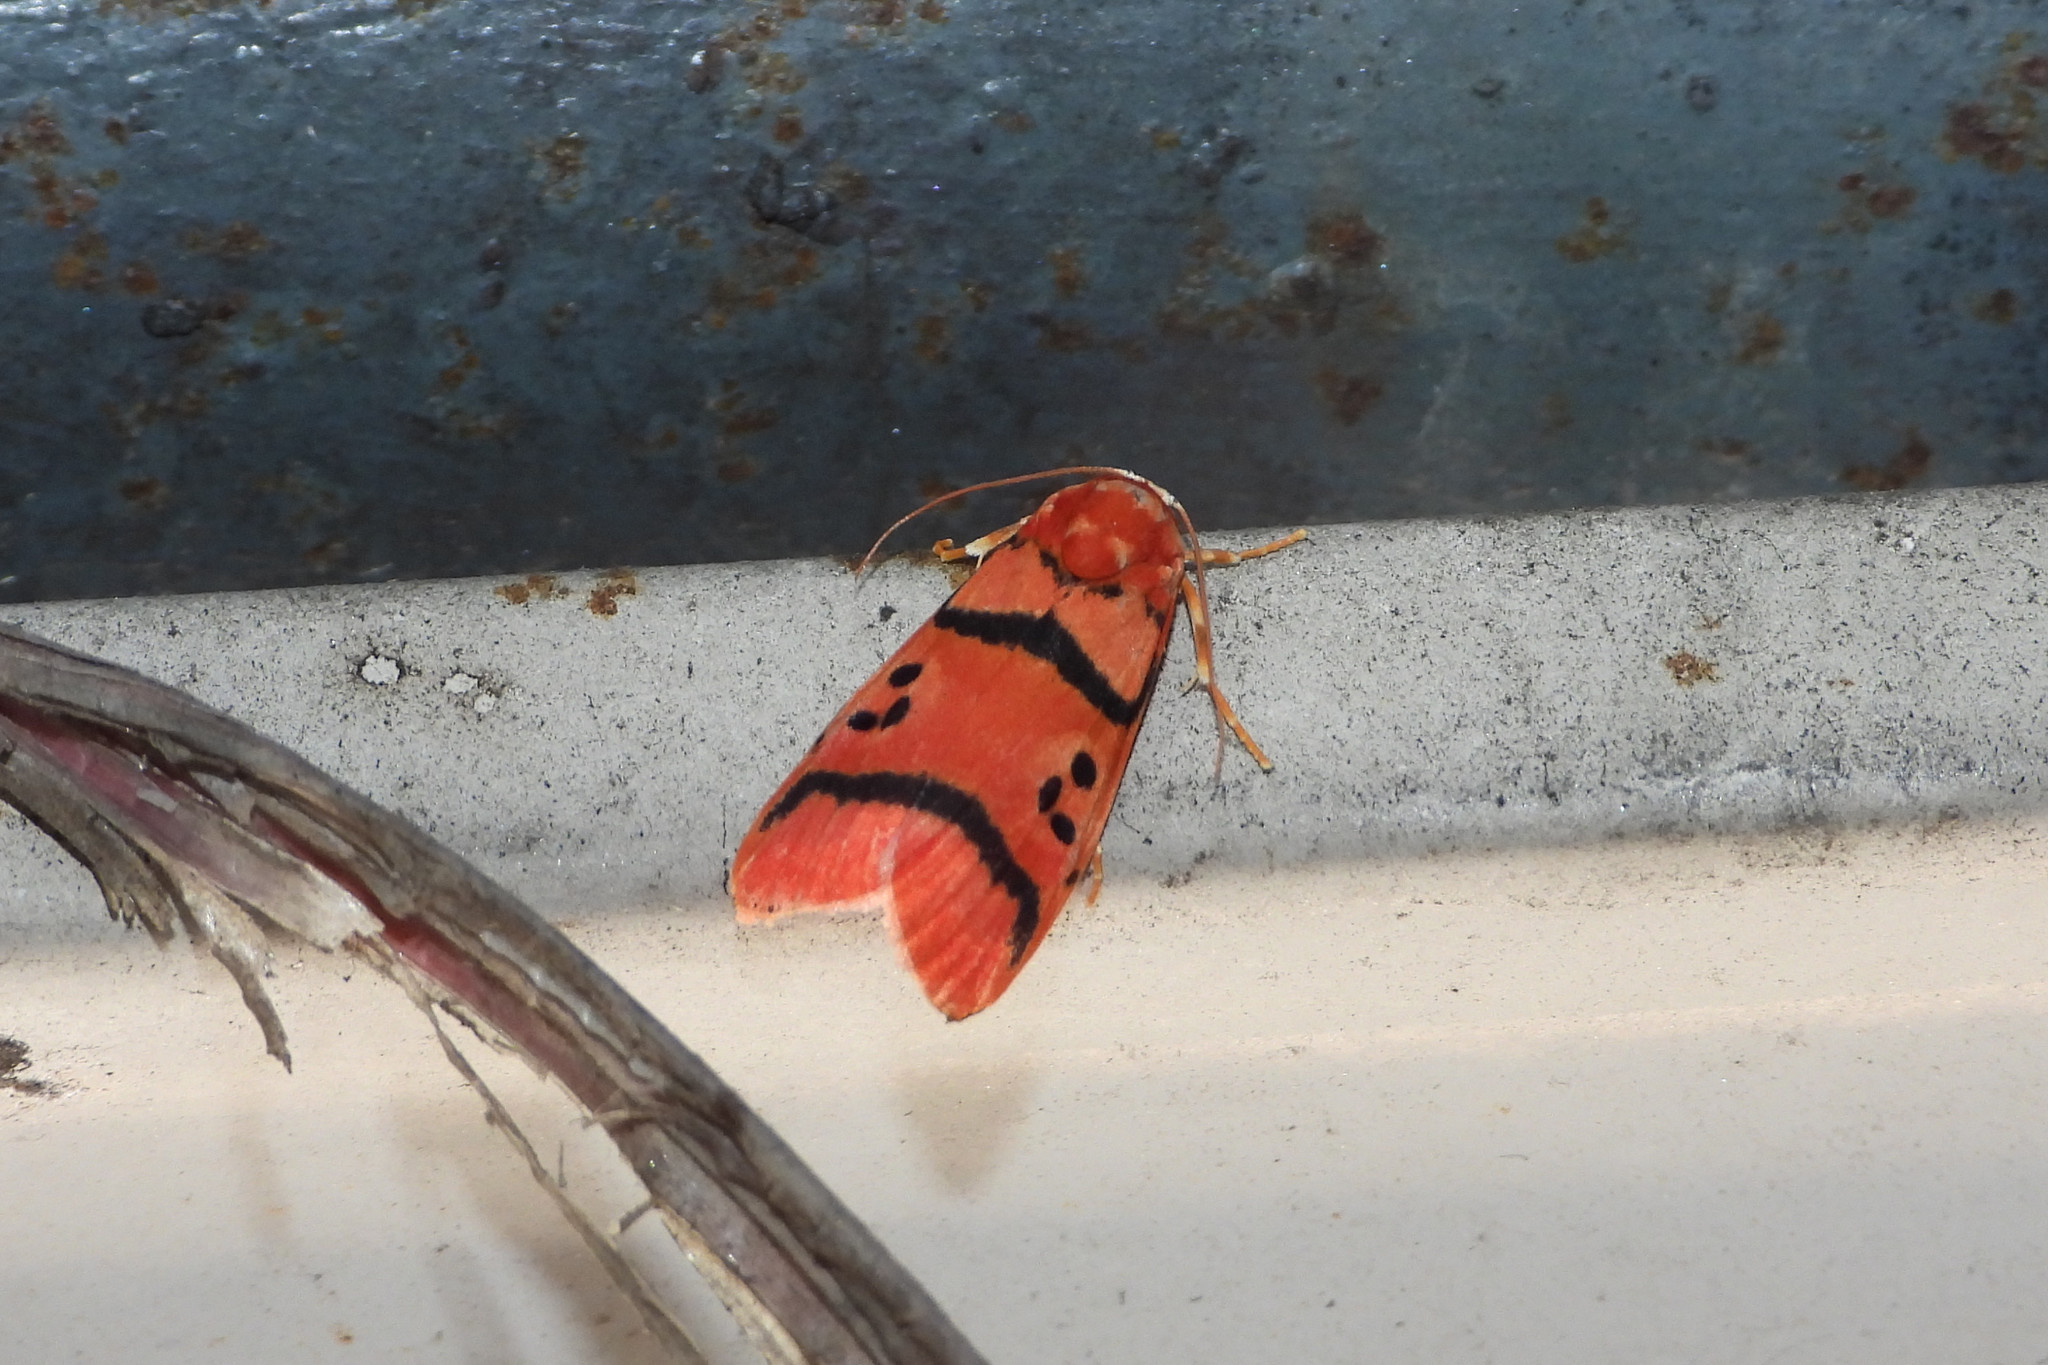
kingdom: Animalia
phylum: Arthropoda
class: Insecta
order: Lepidoptera
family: Erebidae
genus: Cyana
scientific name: Cyana coccinea
